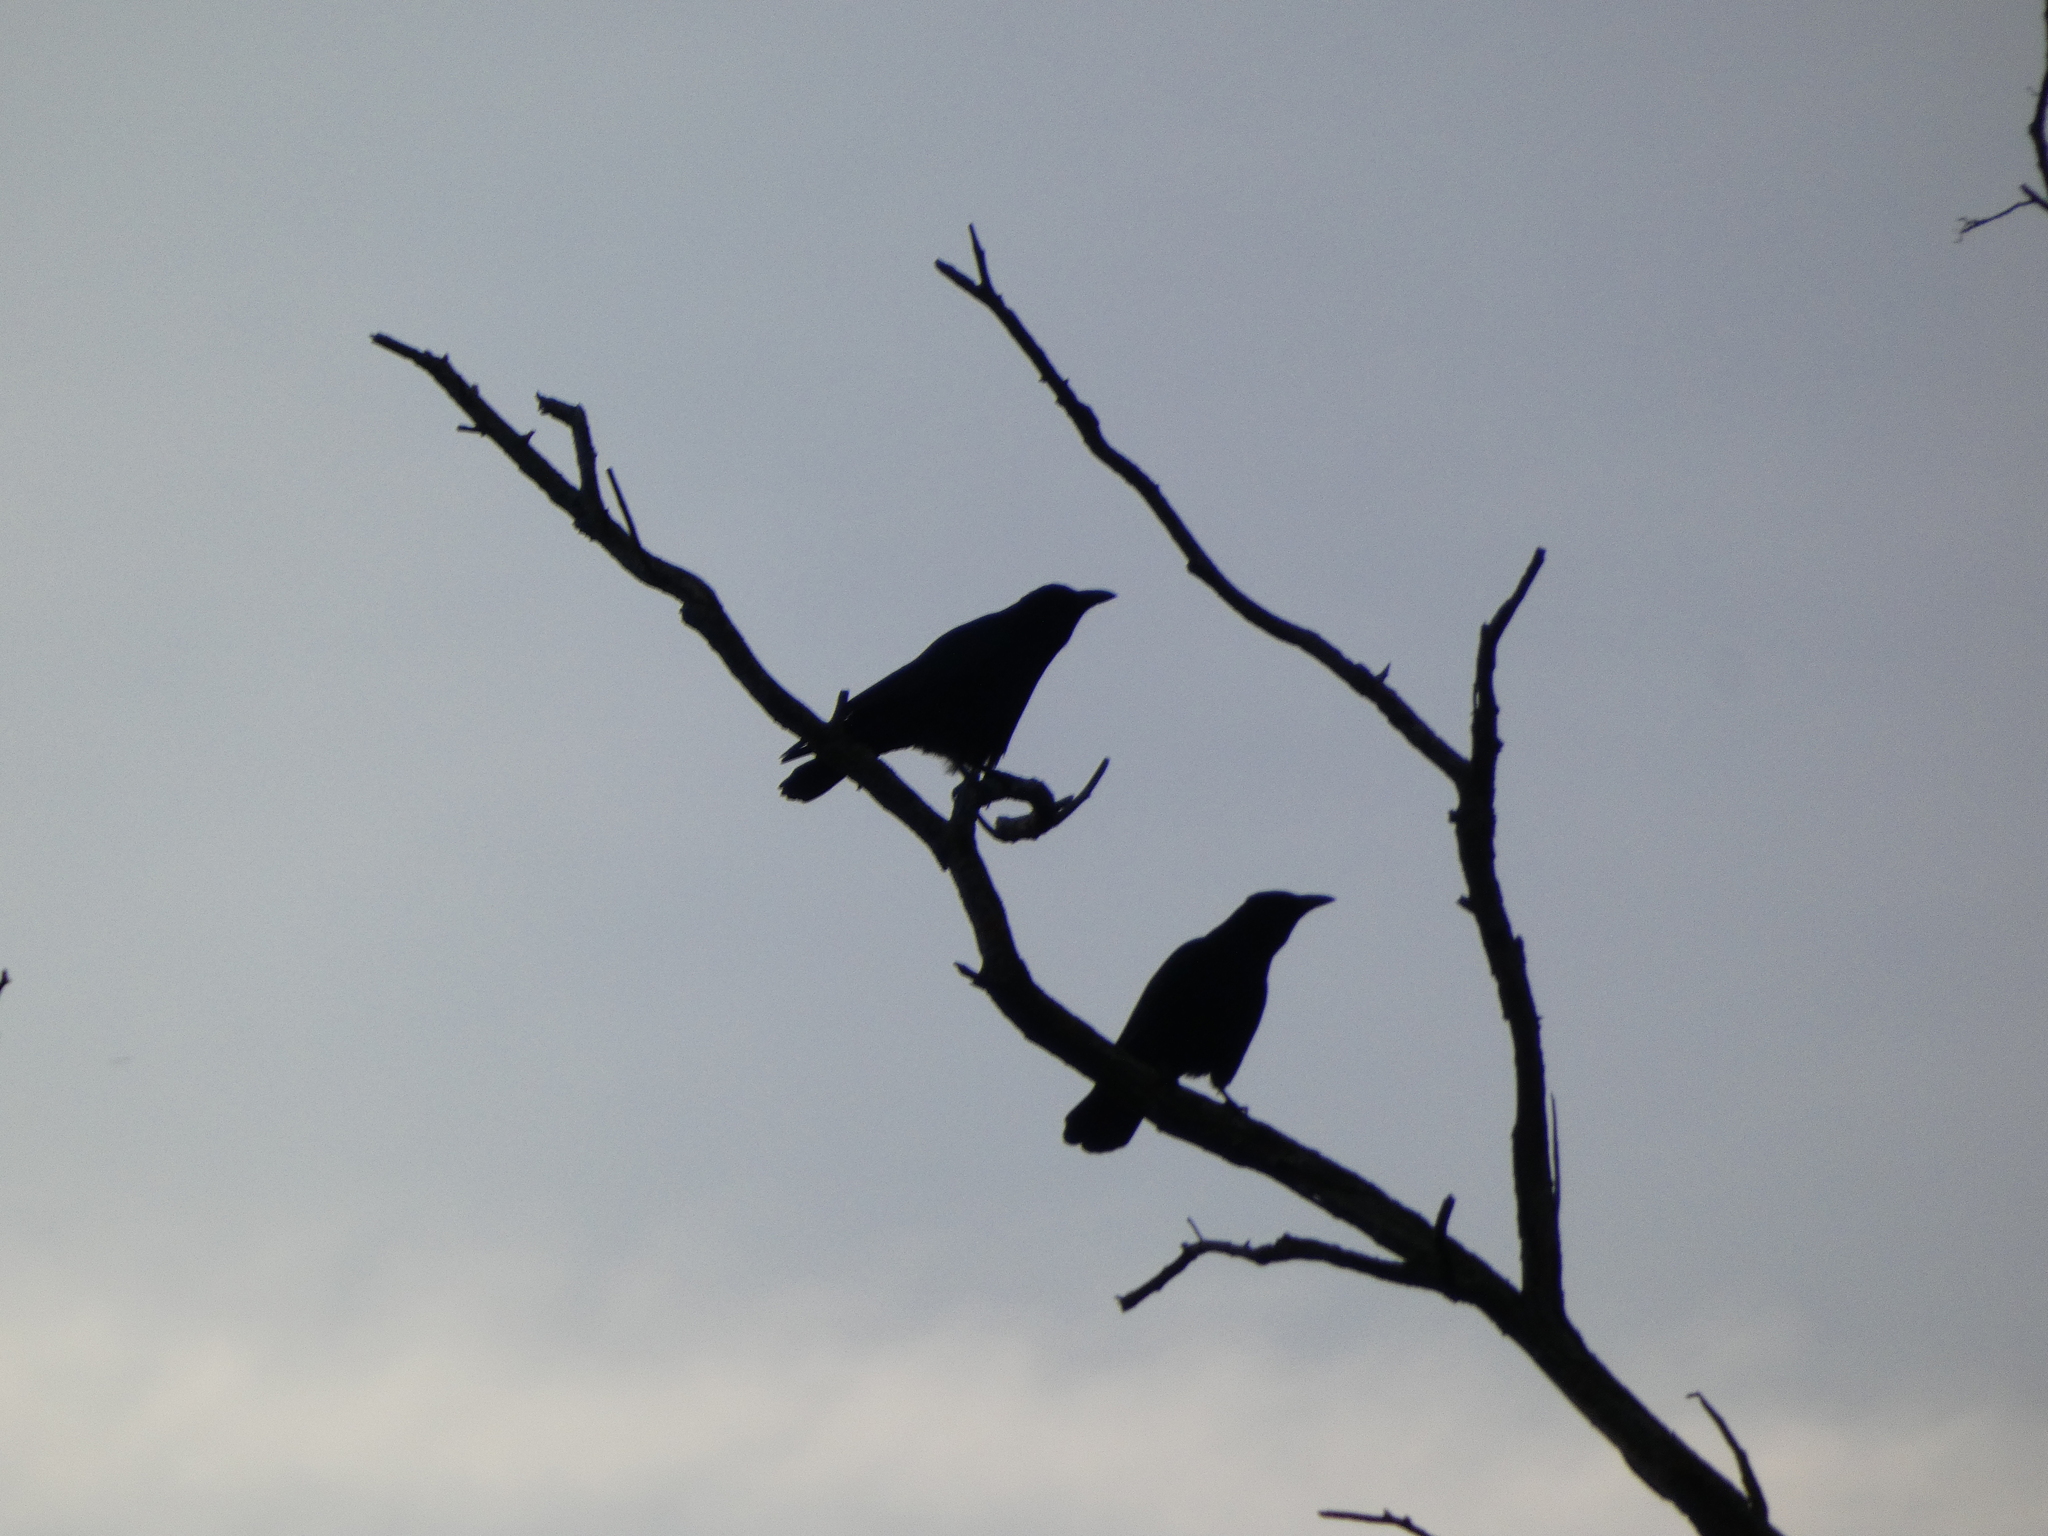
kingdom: Animalia
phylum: Chordata
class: Aves
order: Passeriformes
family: Corvidae
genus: Corvus
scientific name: Corvus corone
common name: Carrion crow
